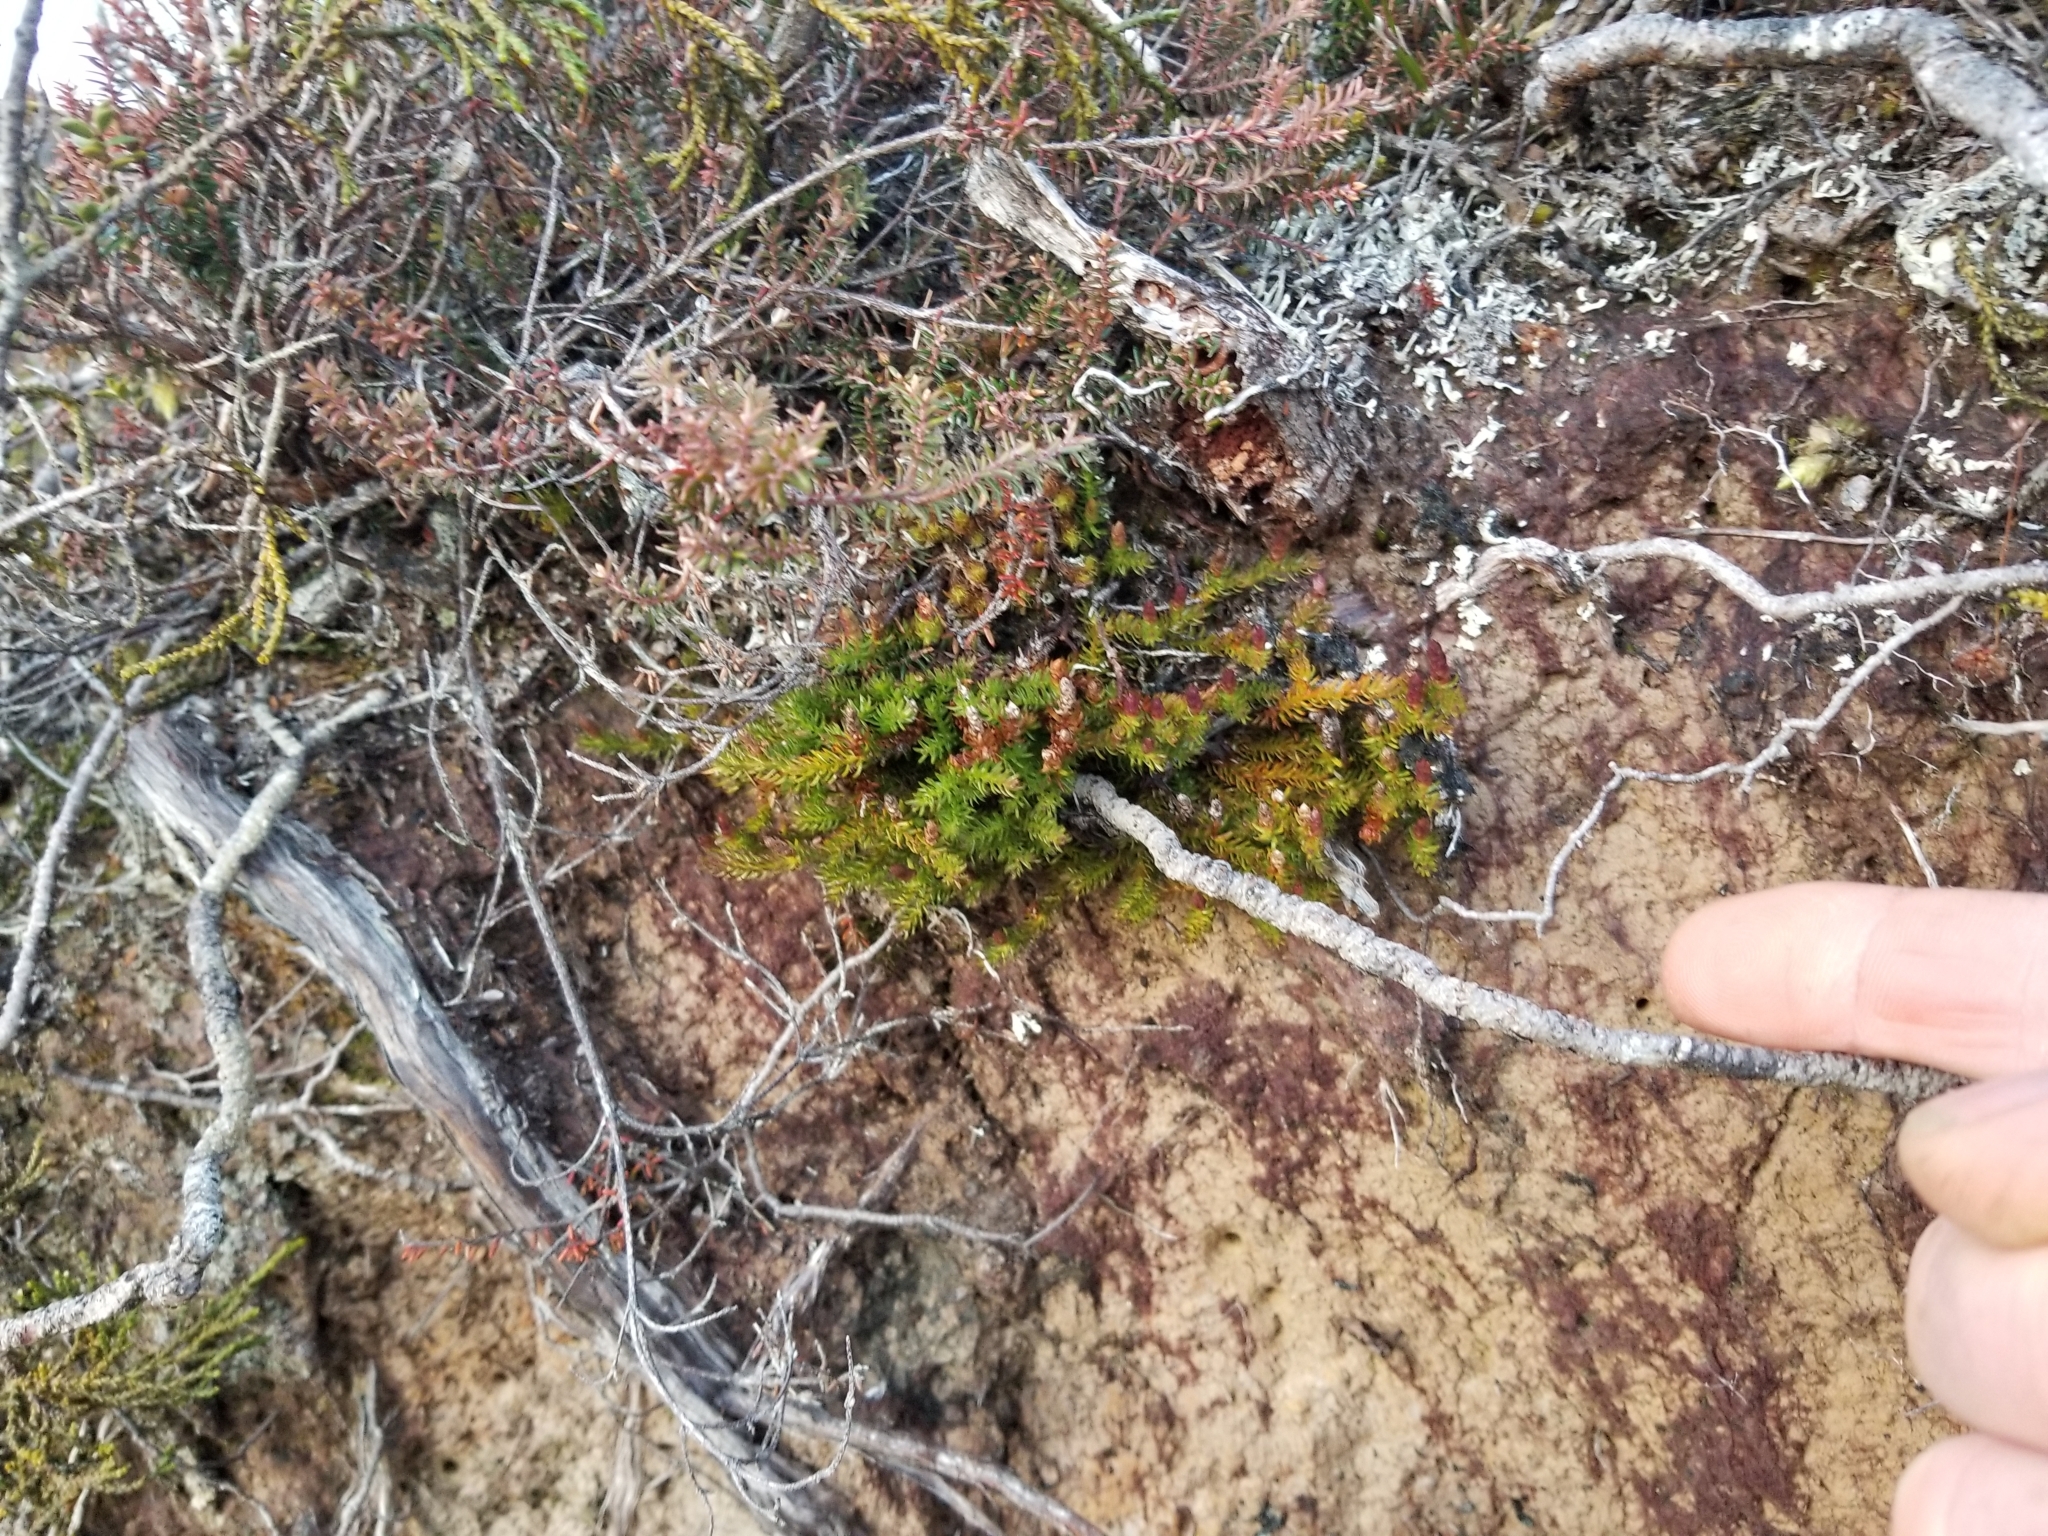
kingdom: Plantae
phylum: Tracheophyta
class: Lycopodiopsida
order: Lycopodiales
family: Lycopodiaceae
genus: Lateristachys
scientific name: Lateristachys diffusa
